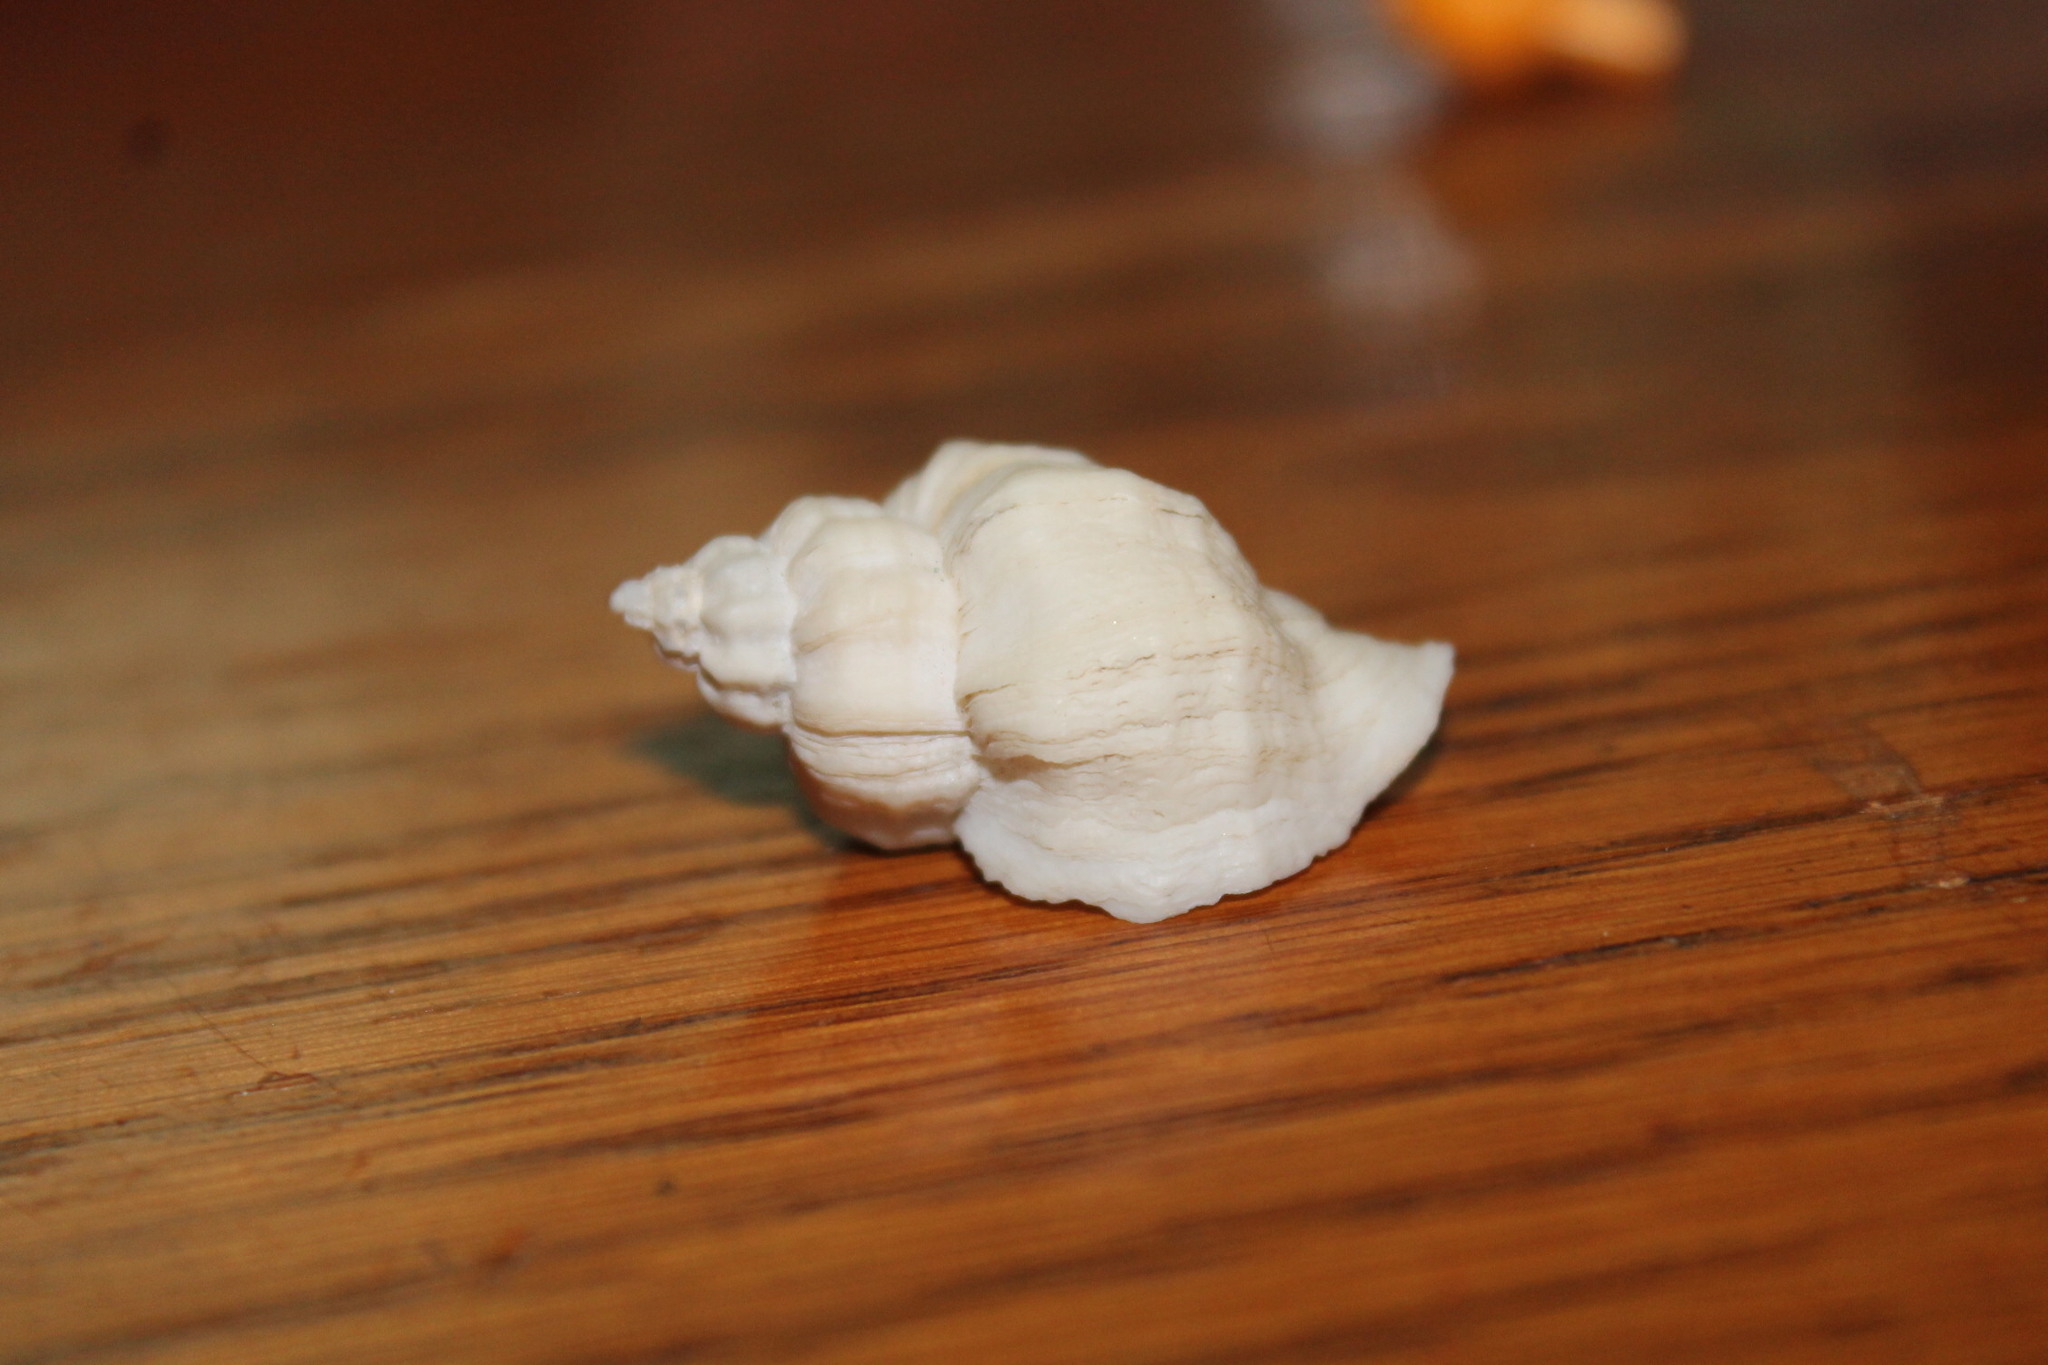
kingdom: Animalia
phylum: Mollusca
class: Gastropoda
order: Neogastropoda
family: Muricidae
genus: Urosalpinx
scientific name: Urosalpinx cinerea
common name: American sting winkle
